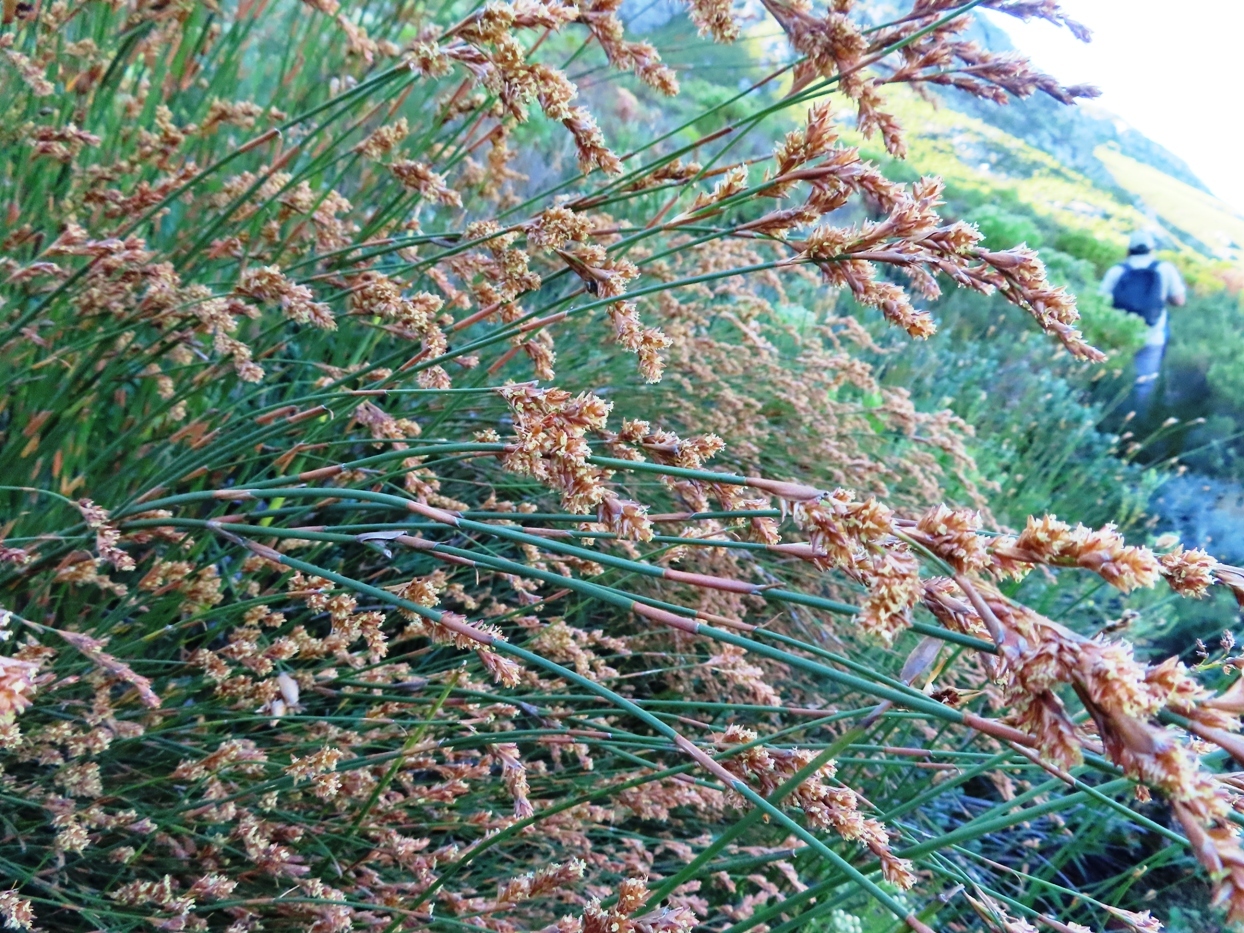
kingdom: Plantae
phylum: Tracheophyta
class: Liliopsida
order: Poales
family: Restionaceae
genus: Restio
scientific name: Restio egregius
